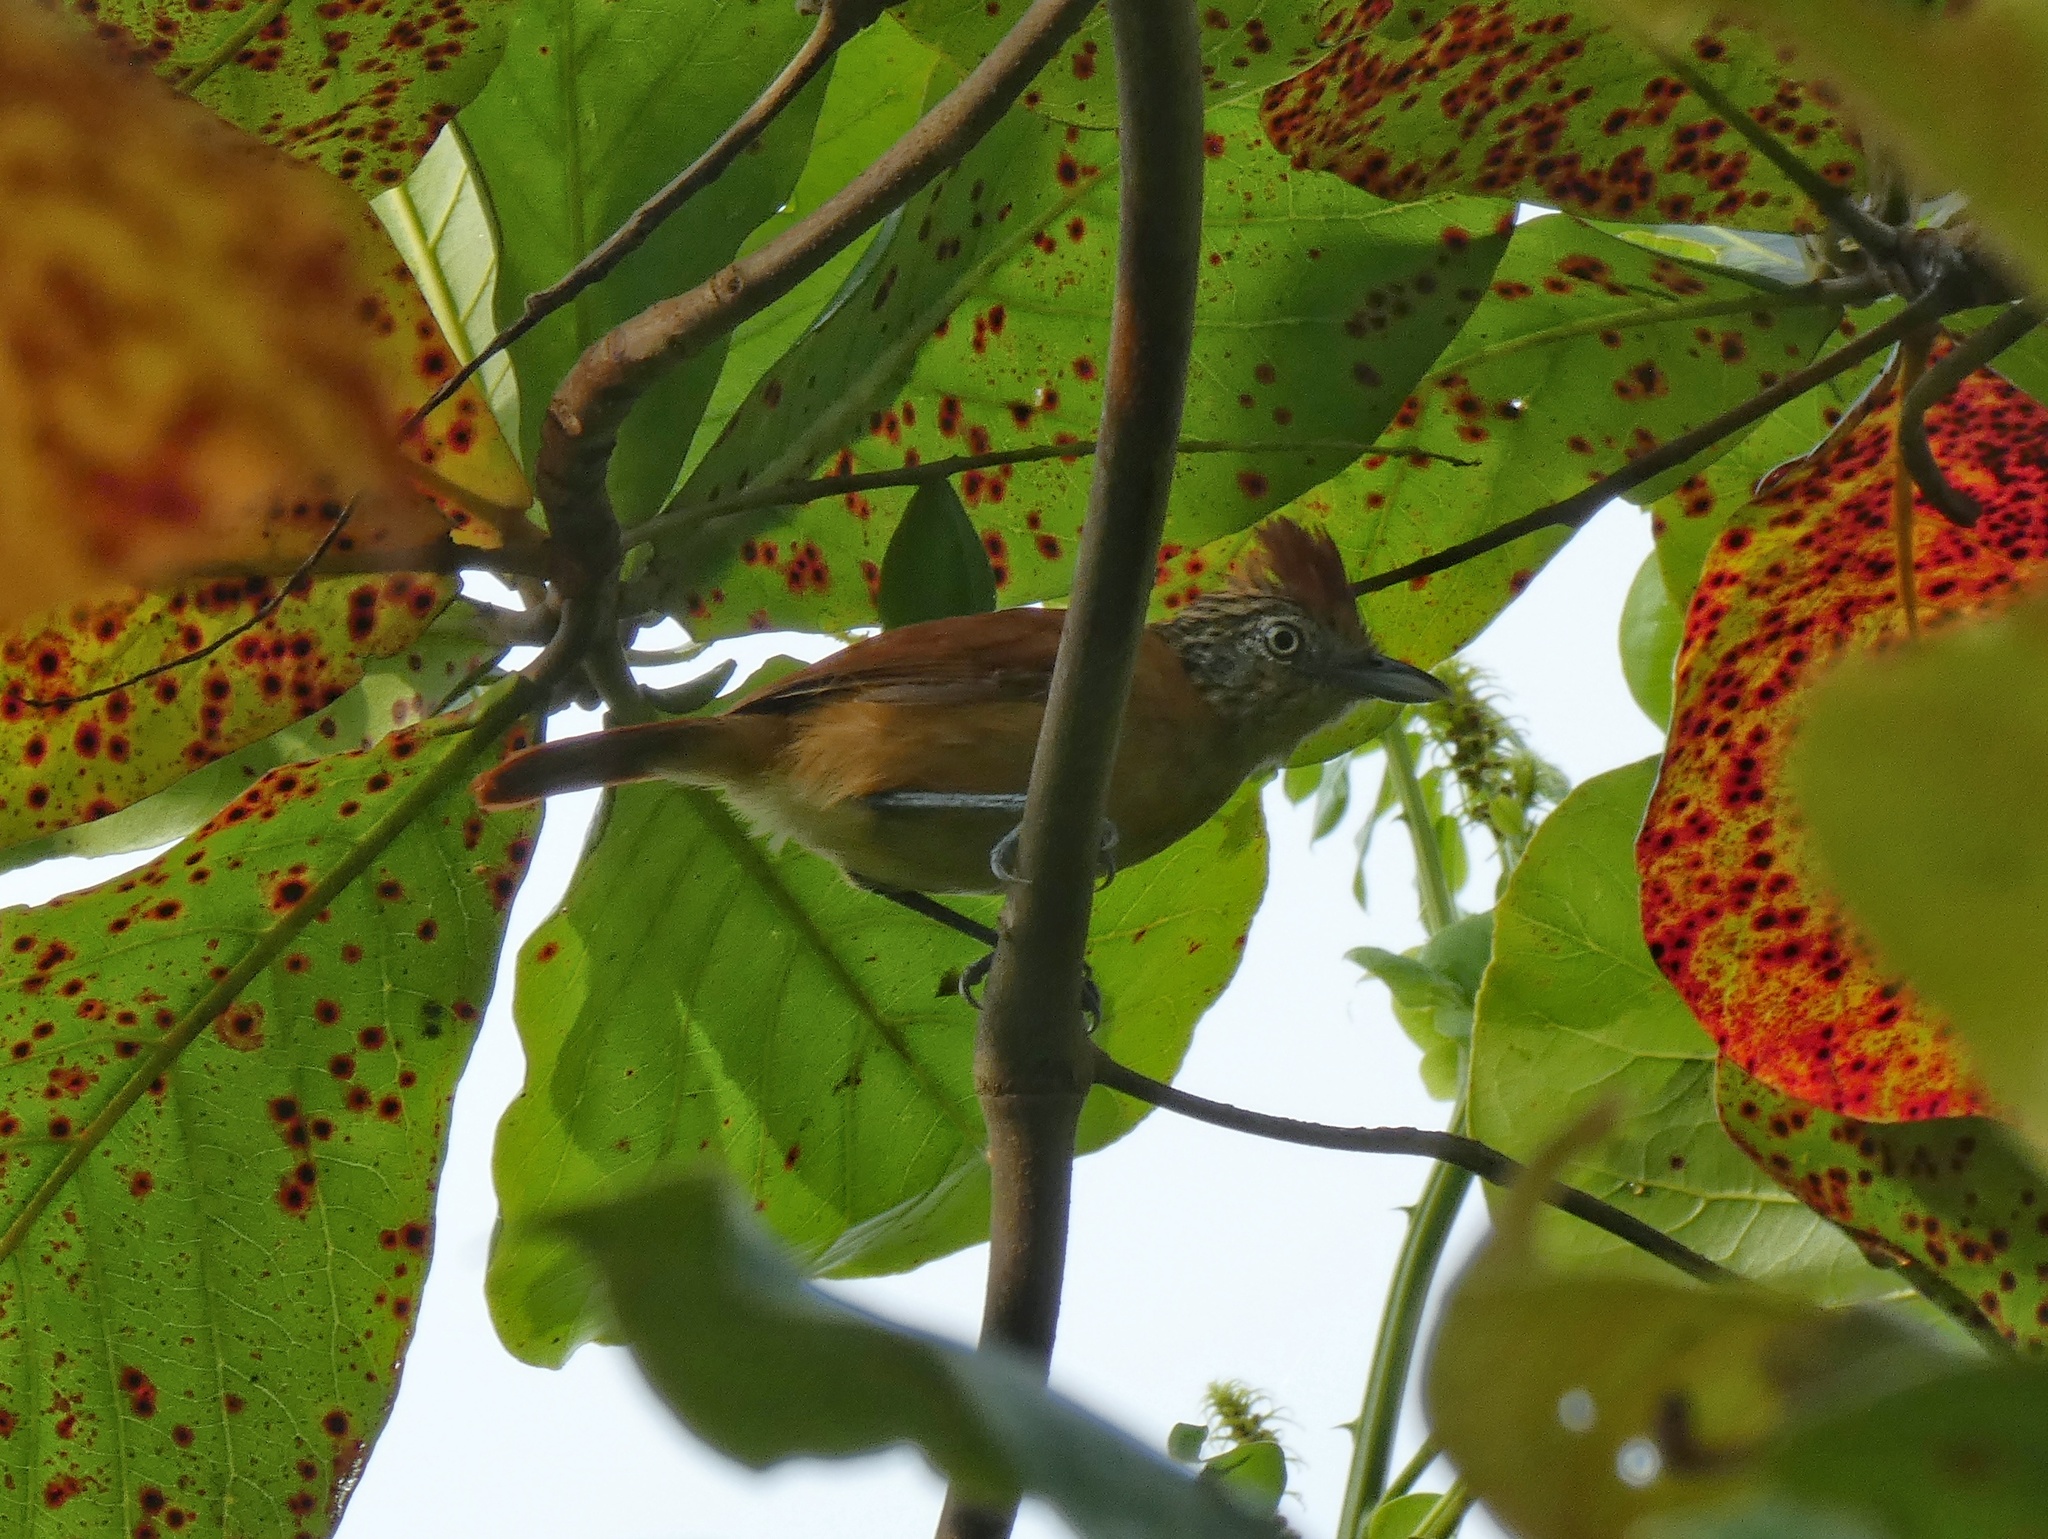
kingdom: Animalia
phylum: Chordata
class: Aves
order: Passeriformes
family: Thamnophilidae
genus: Thamnophilus
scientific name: Thamnophilus doliatus
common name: Barred antshrike
